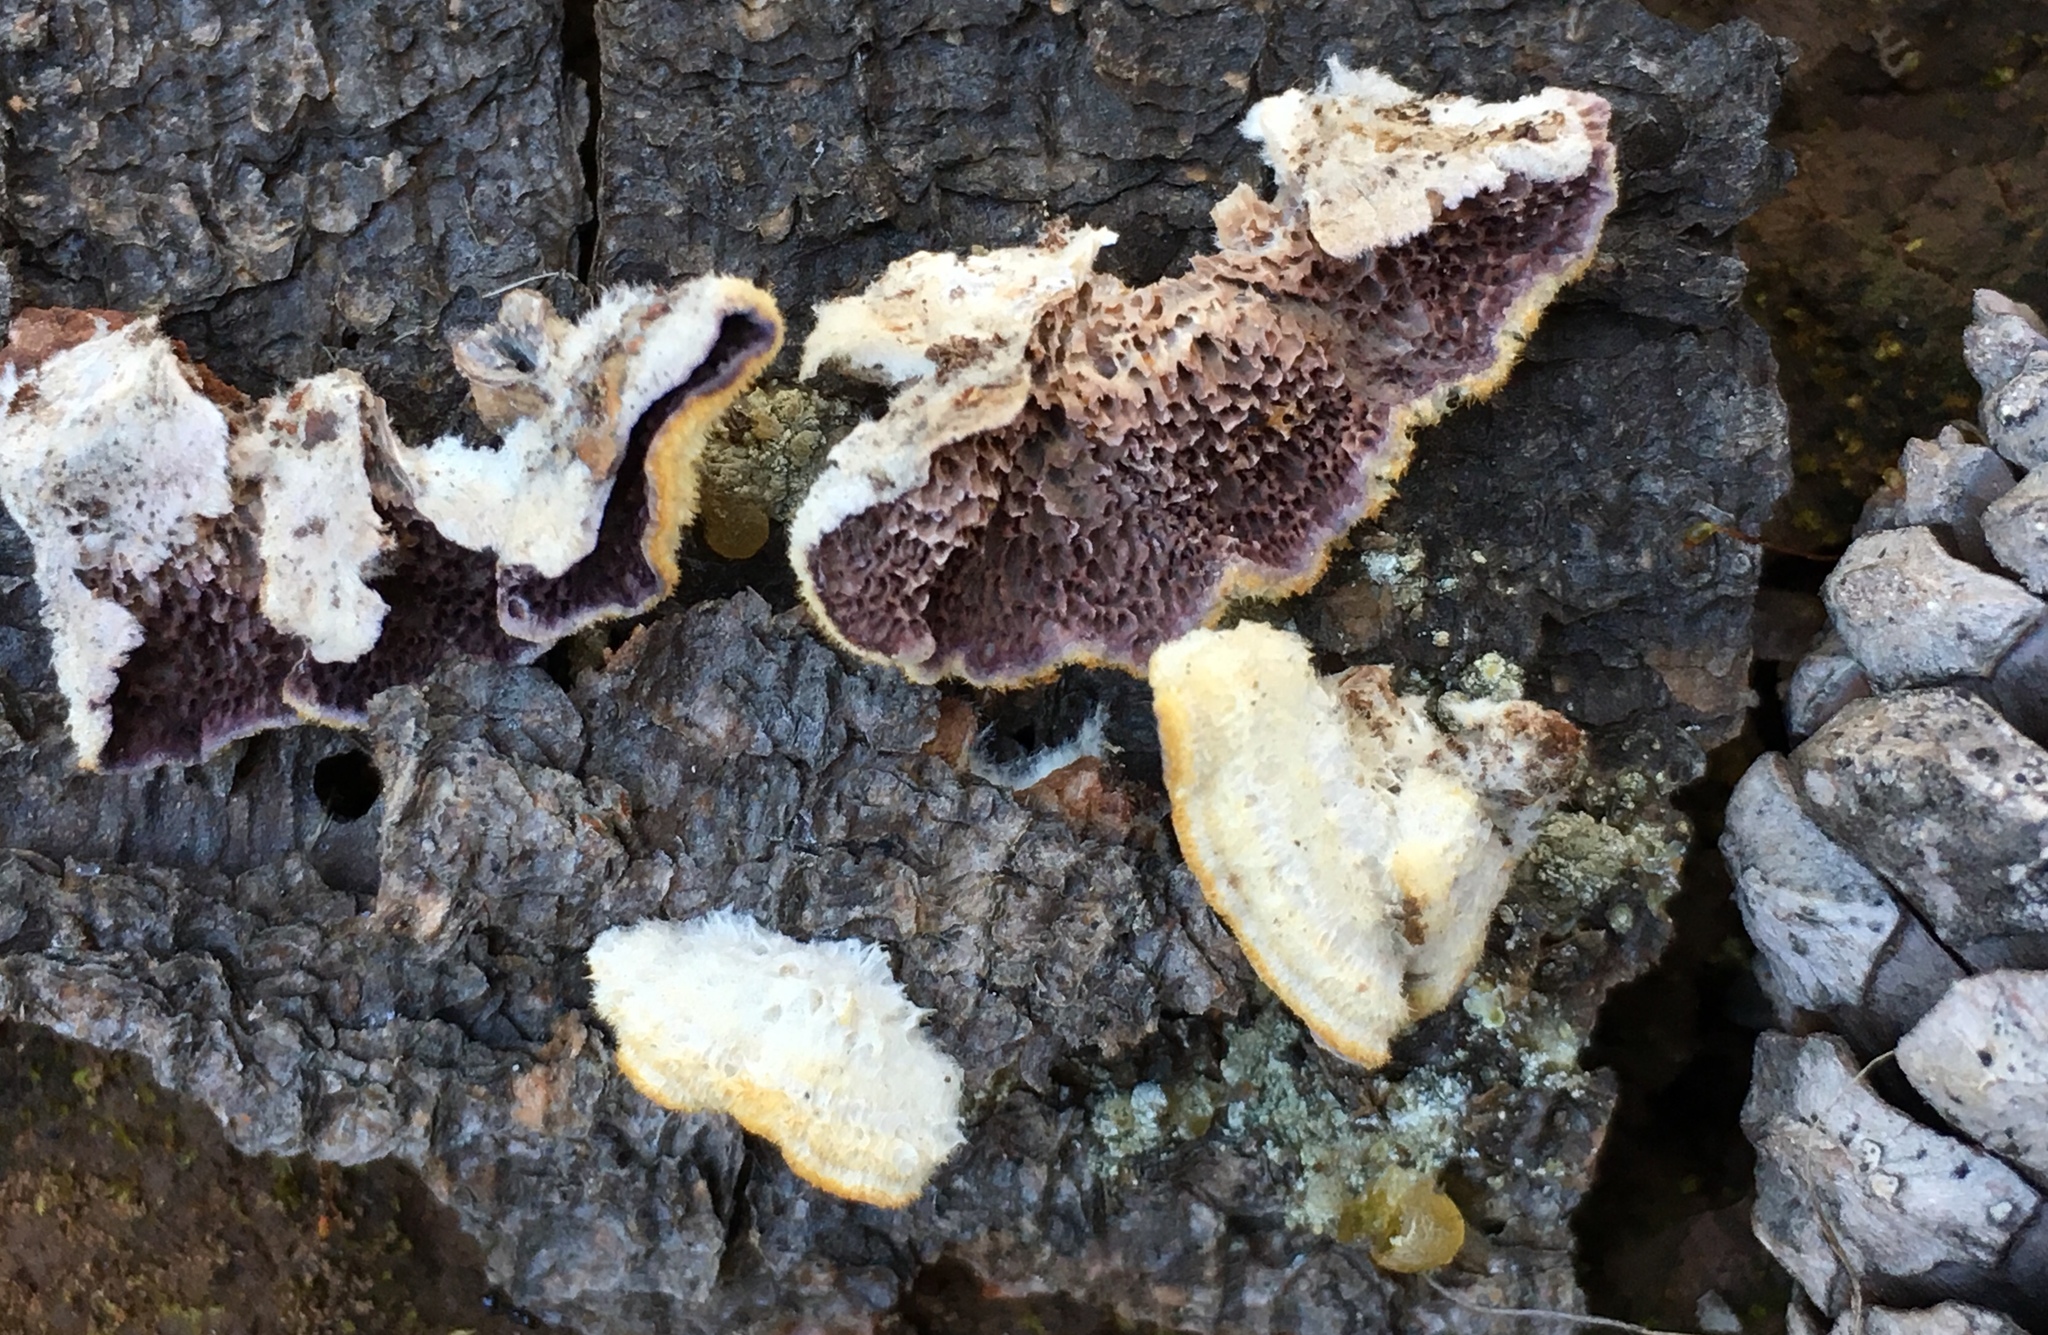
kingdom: Fungi
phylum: Basidiomycota
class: Agaricomycetes
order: Hymenochaetales
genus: Trichaptum
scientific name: Trichaptum abietinum
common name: Purplepore bracket
